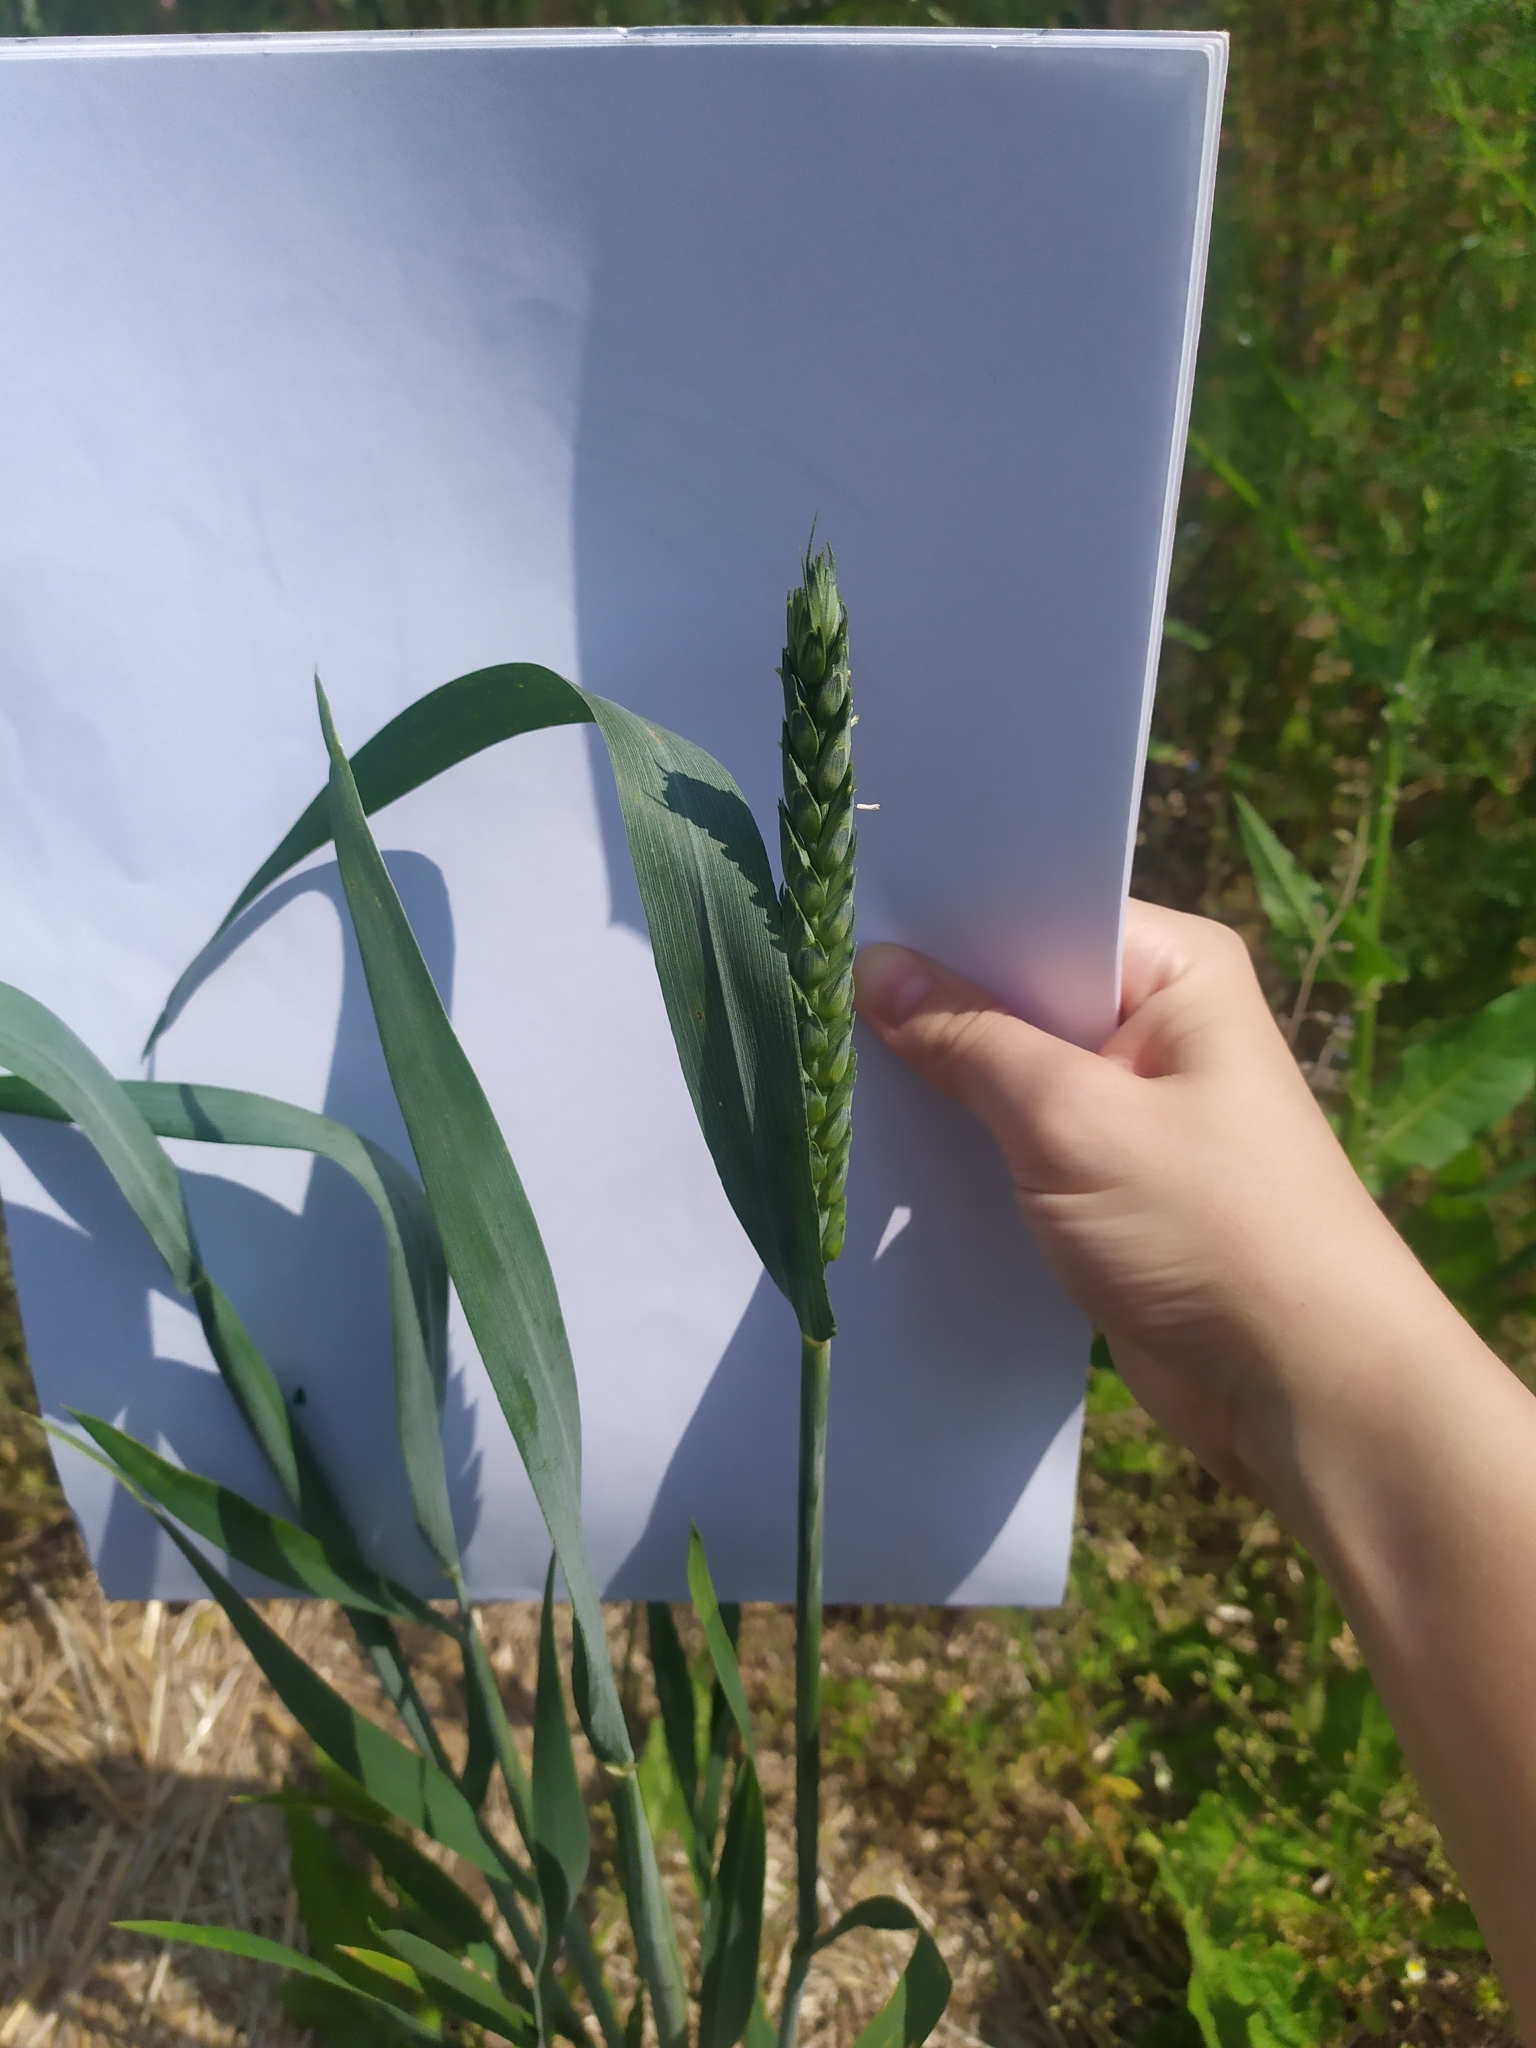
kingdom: Plantae
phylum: Tracheophyta
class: Liliopsida
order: Poales
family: Poaceae
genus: Triticum
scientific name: Triticum aestivum
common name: Common wheat
